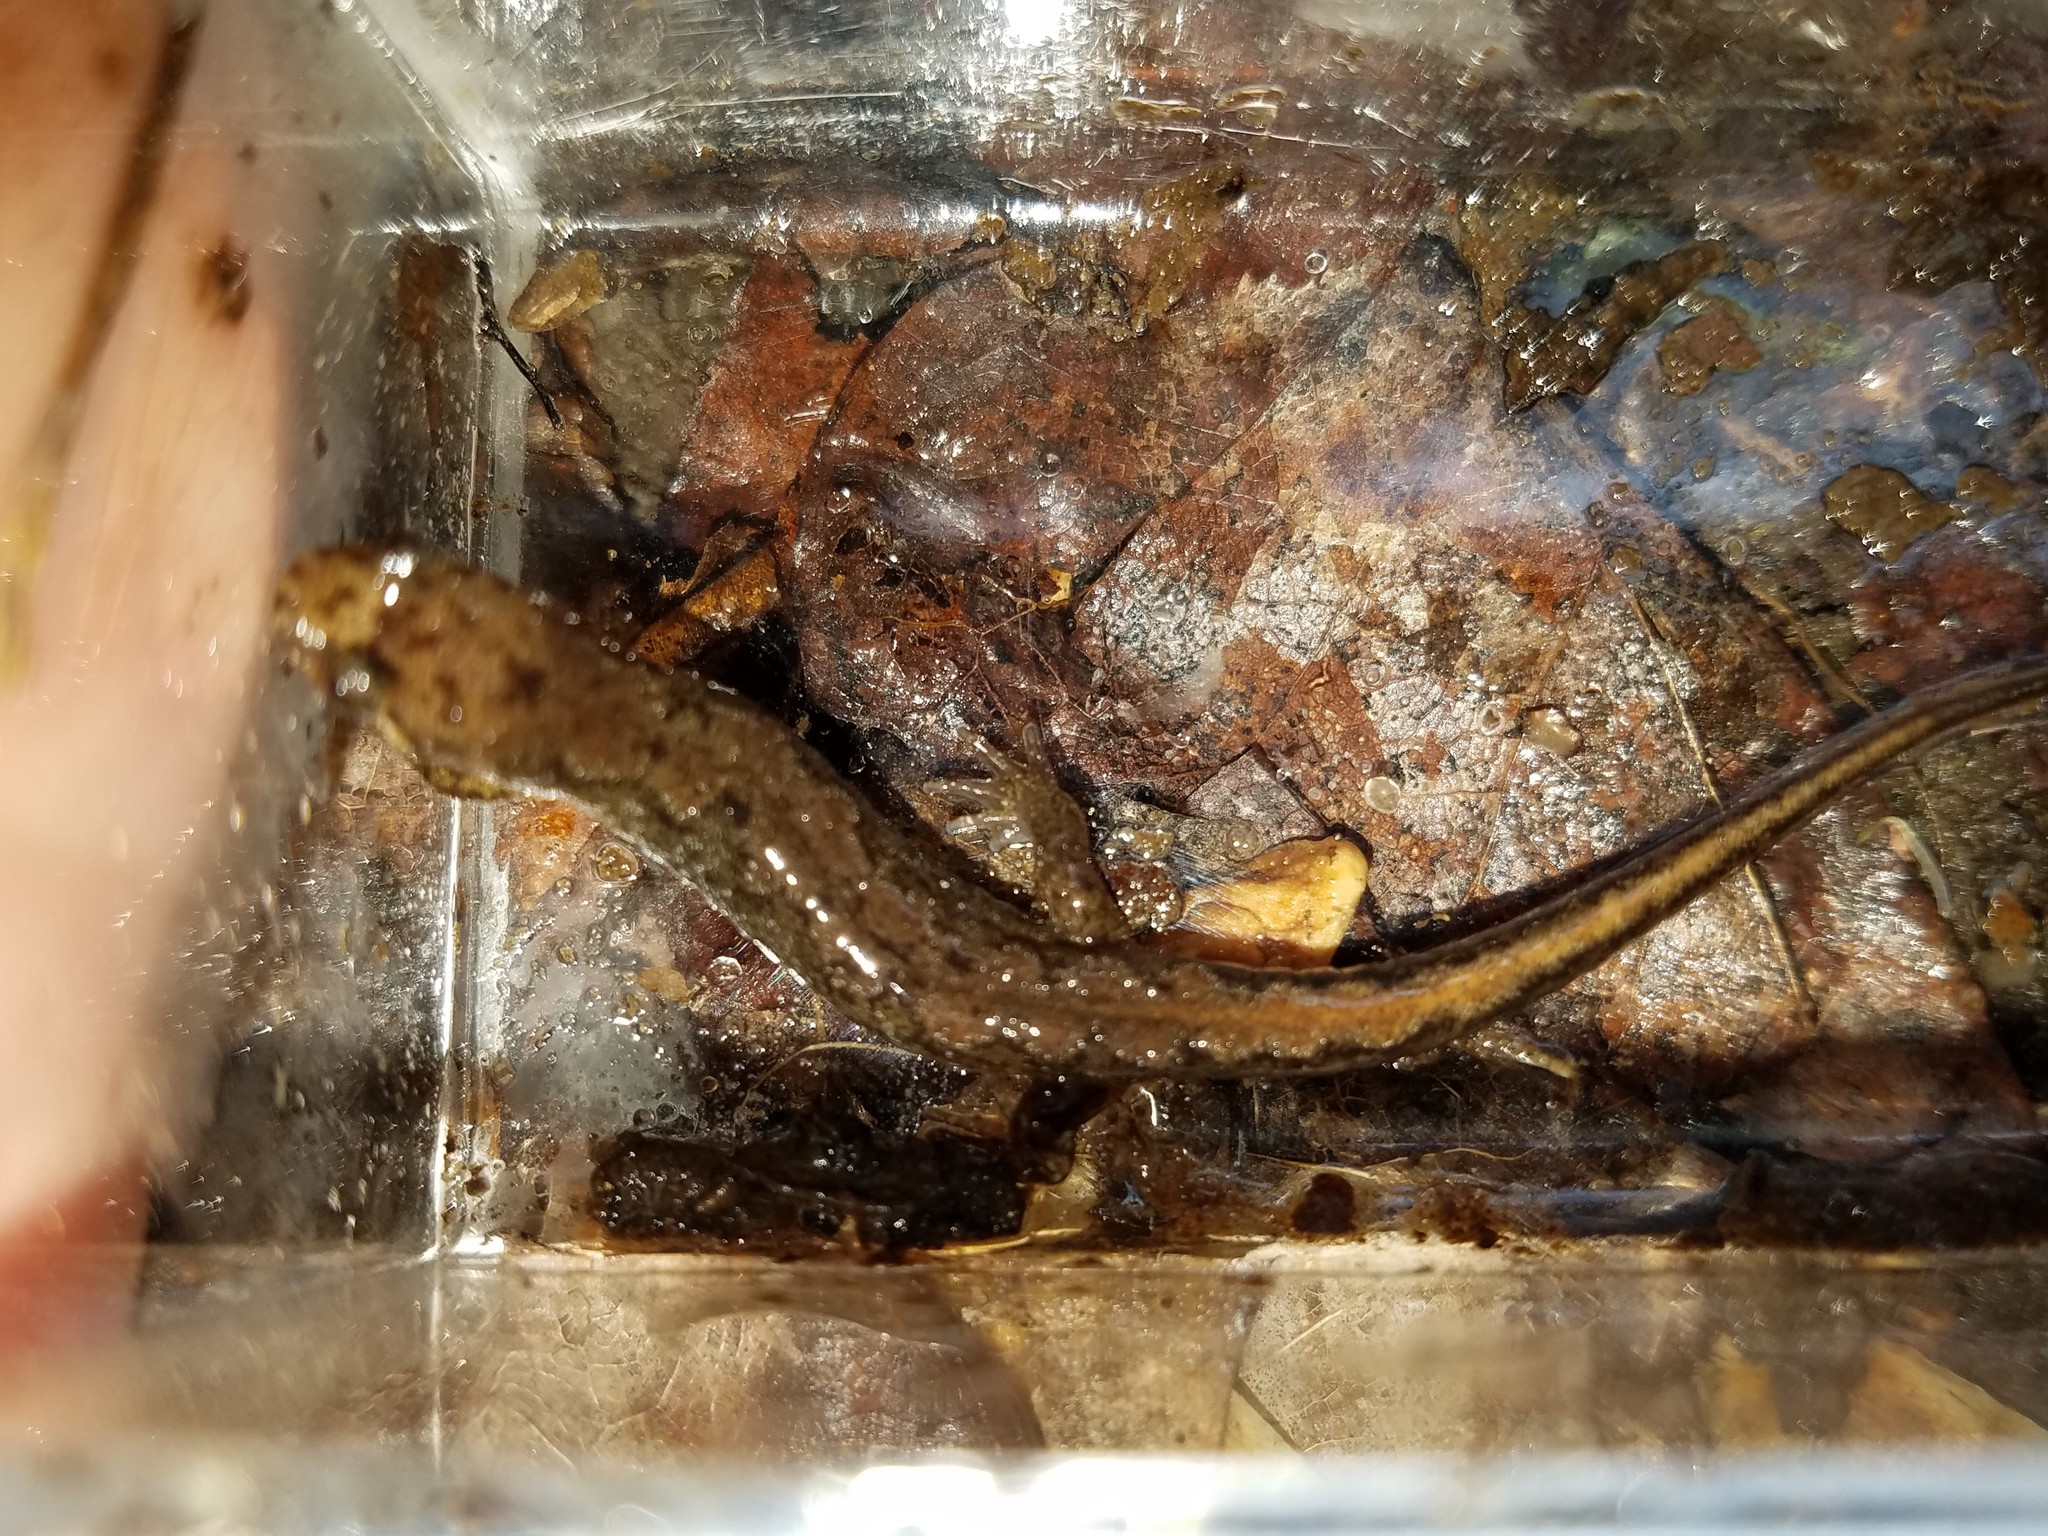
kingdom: Animalia
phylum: Chordata
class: Amphibia
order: Caudata
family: Plethodontidae
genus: Desmognathus
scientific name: Desmognathus ocoee
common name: Ocoee salamander
